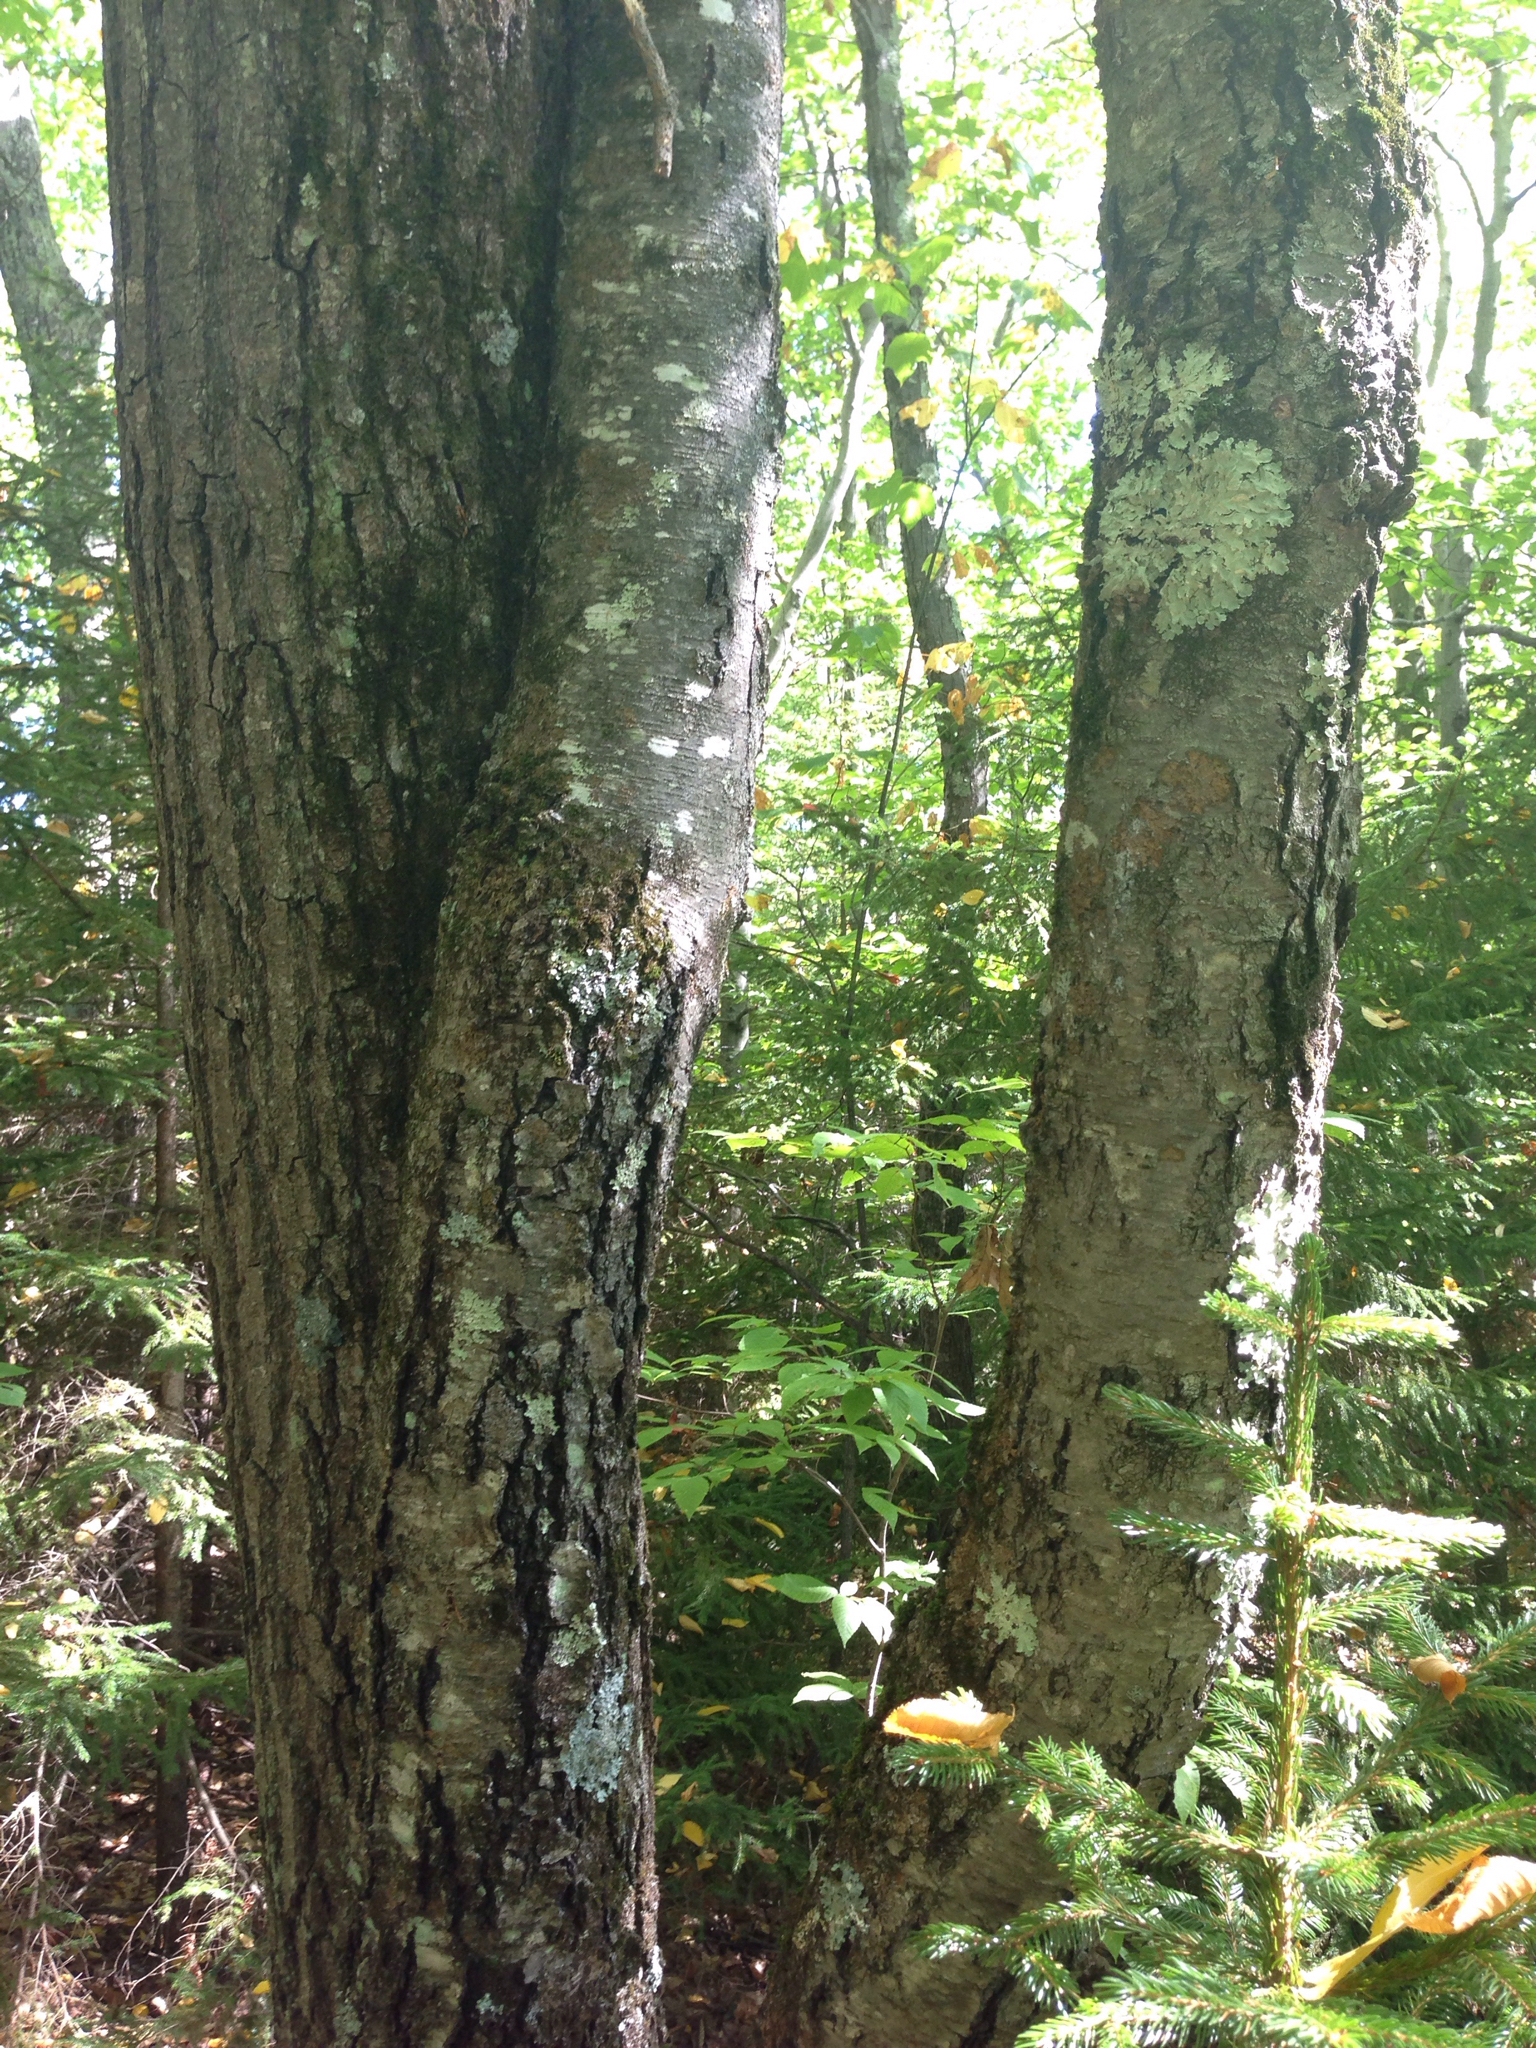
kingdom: Plantae
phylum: Tracheophyta
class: Magnoliopsida
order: Fagales
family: Betulaceae
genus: Betula
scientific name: Betula lenta
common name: Black birch
